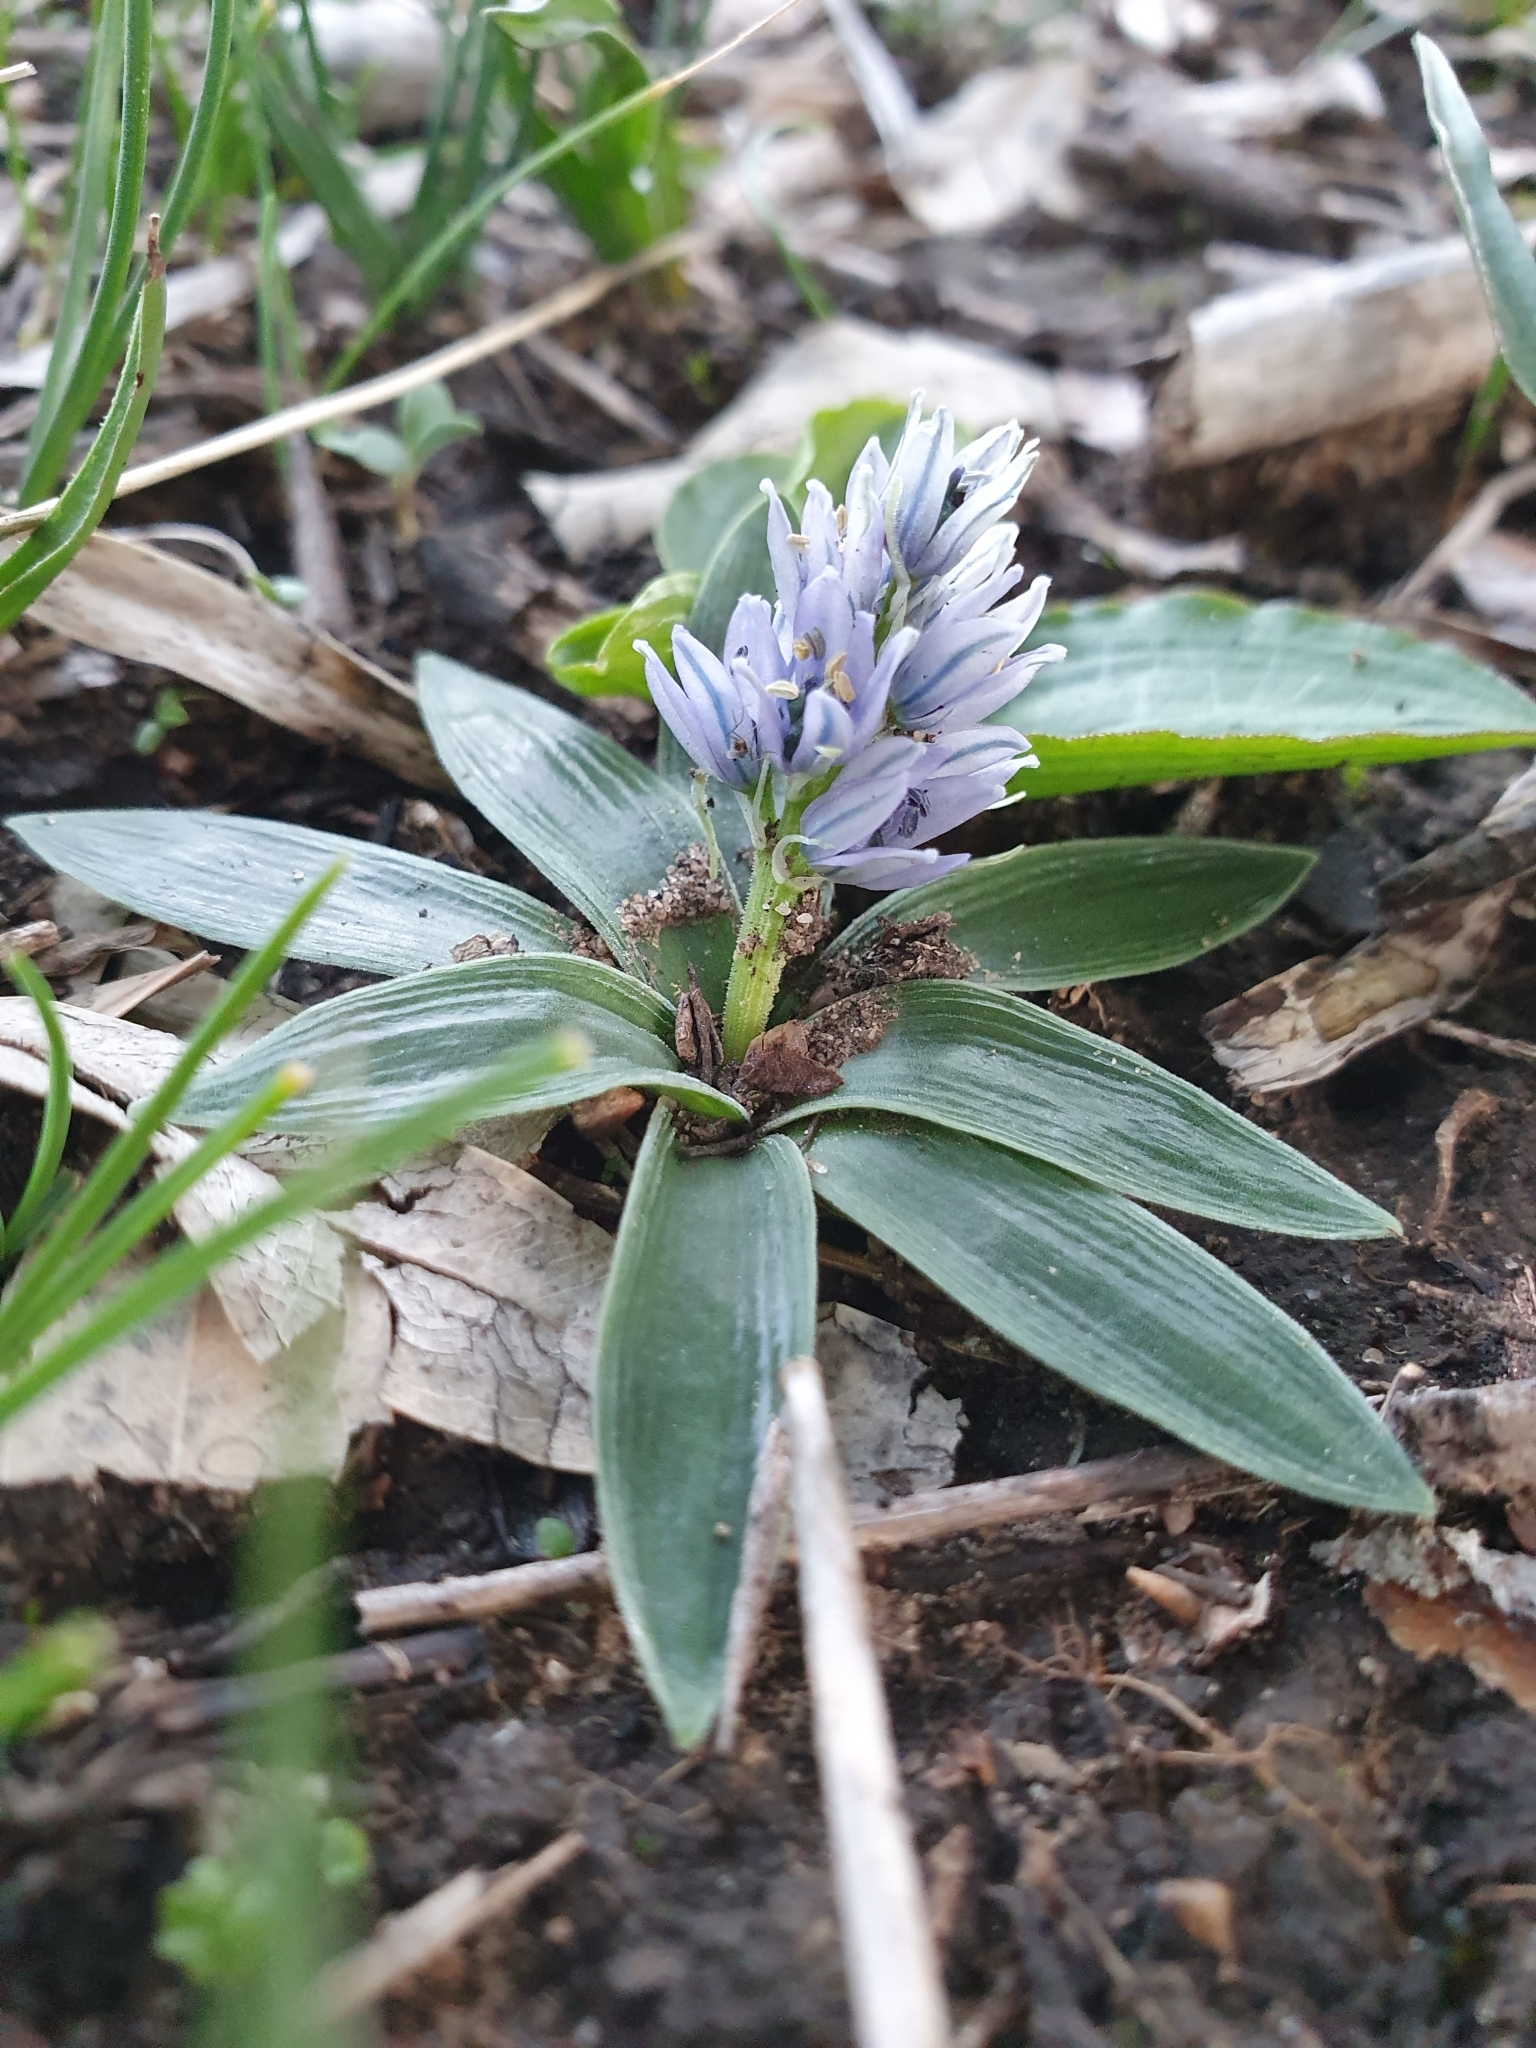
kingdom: Plantae
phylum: Tracheophyta
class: Liliopsida
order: Asparagales
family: Asparagaceae
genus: Hyacinthoides
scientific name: Hyacinthoides lingulata
